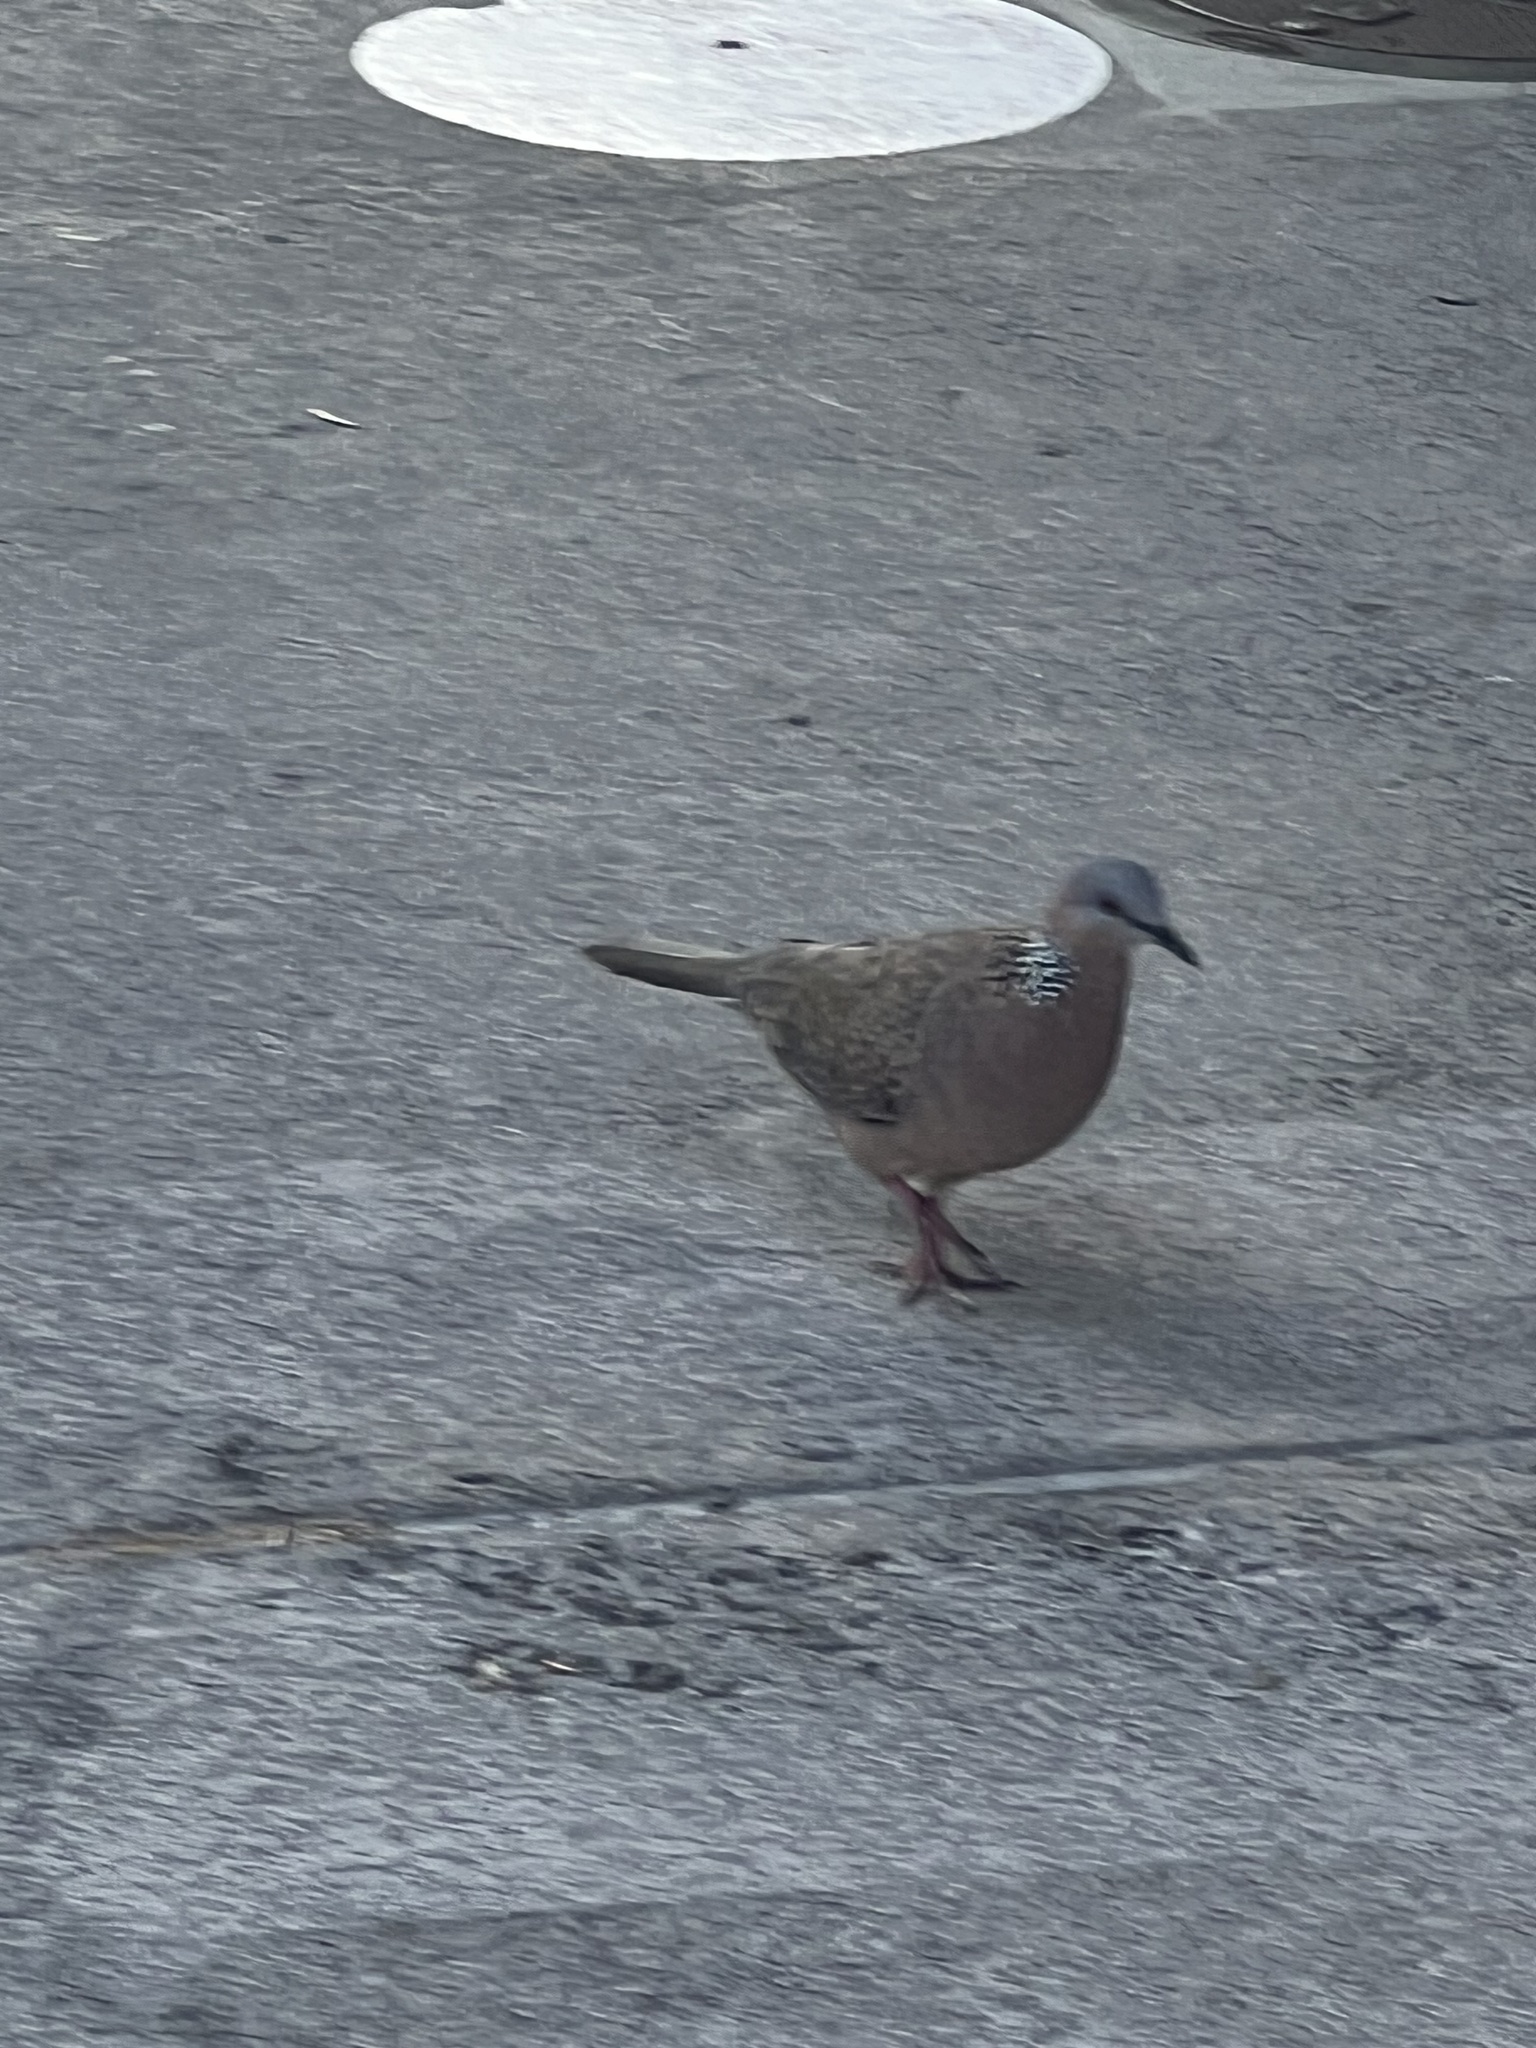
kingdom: Animalia
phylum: Chordata
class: Aves
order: Columbiformes
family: Columbidae
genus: Spilopelia
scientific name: Spilopelia chinensis
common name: Spotted dove
